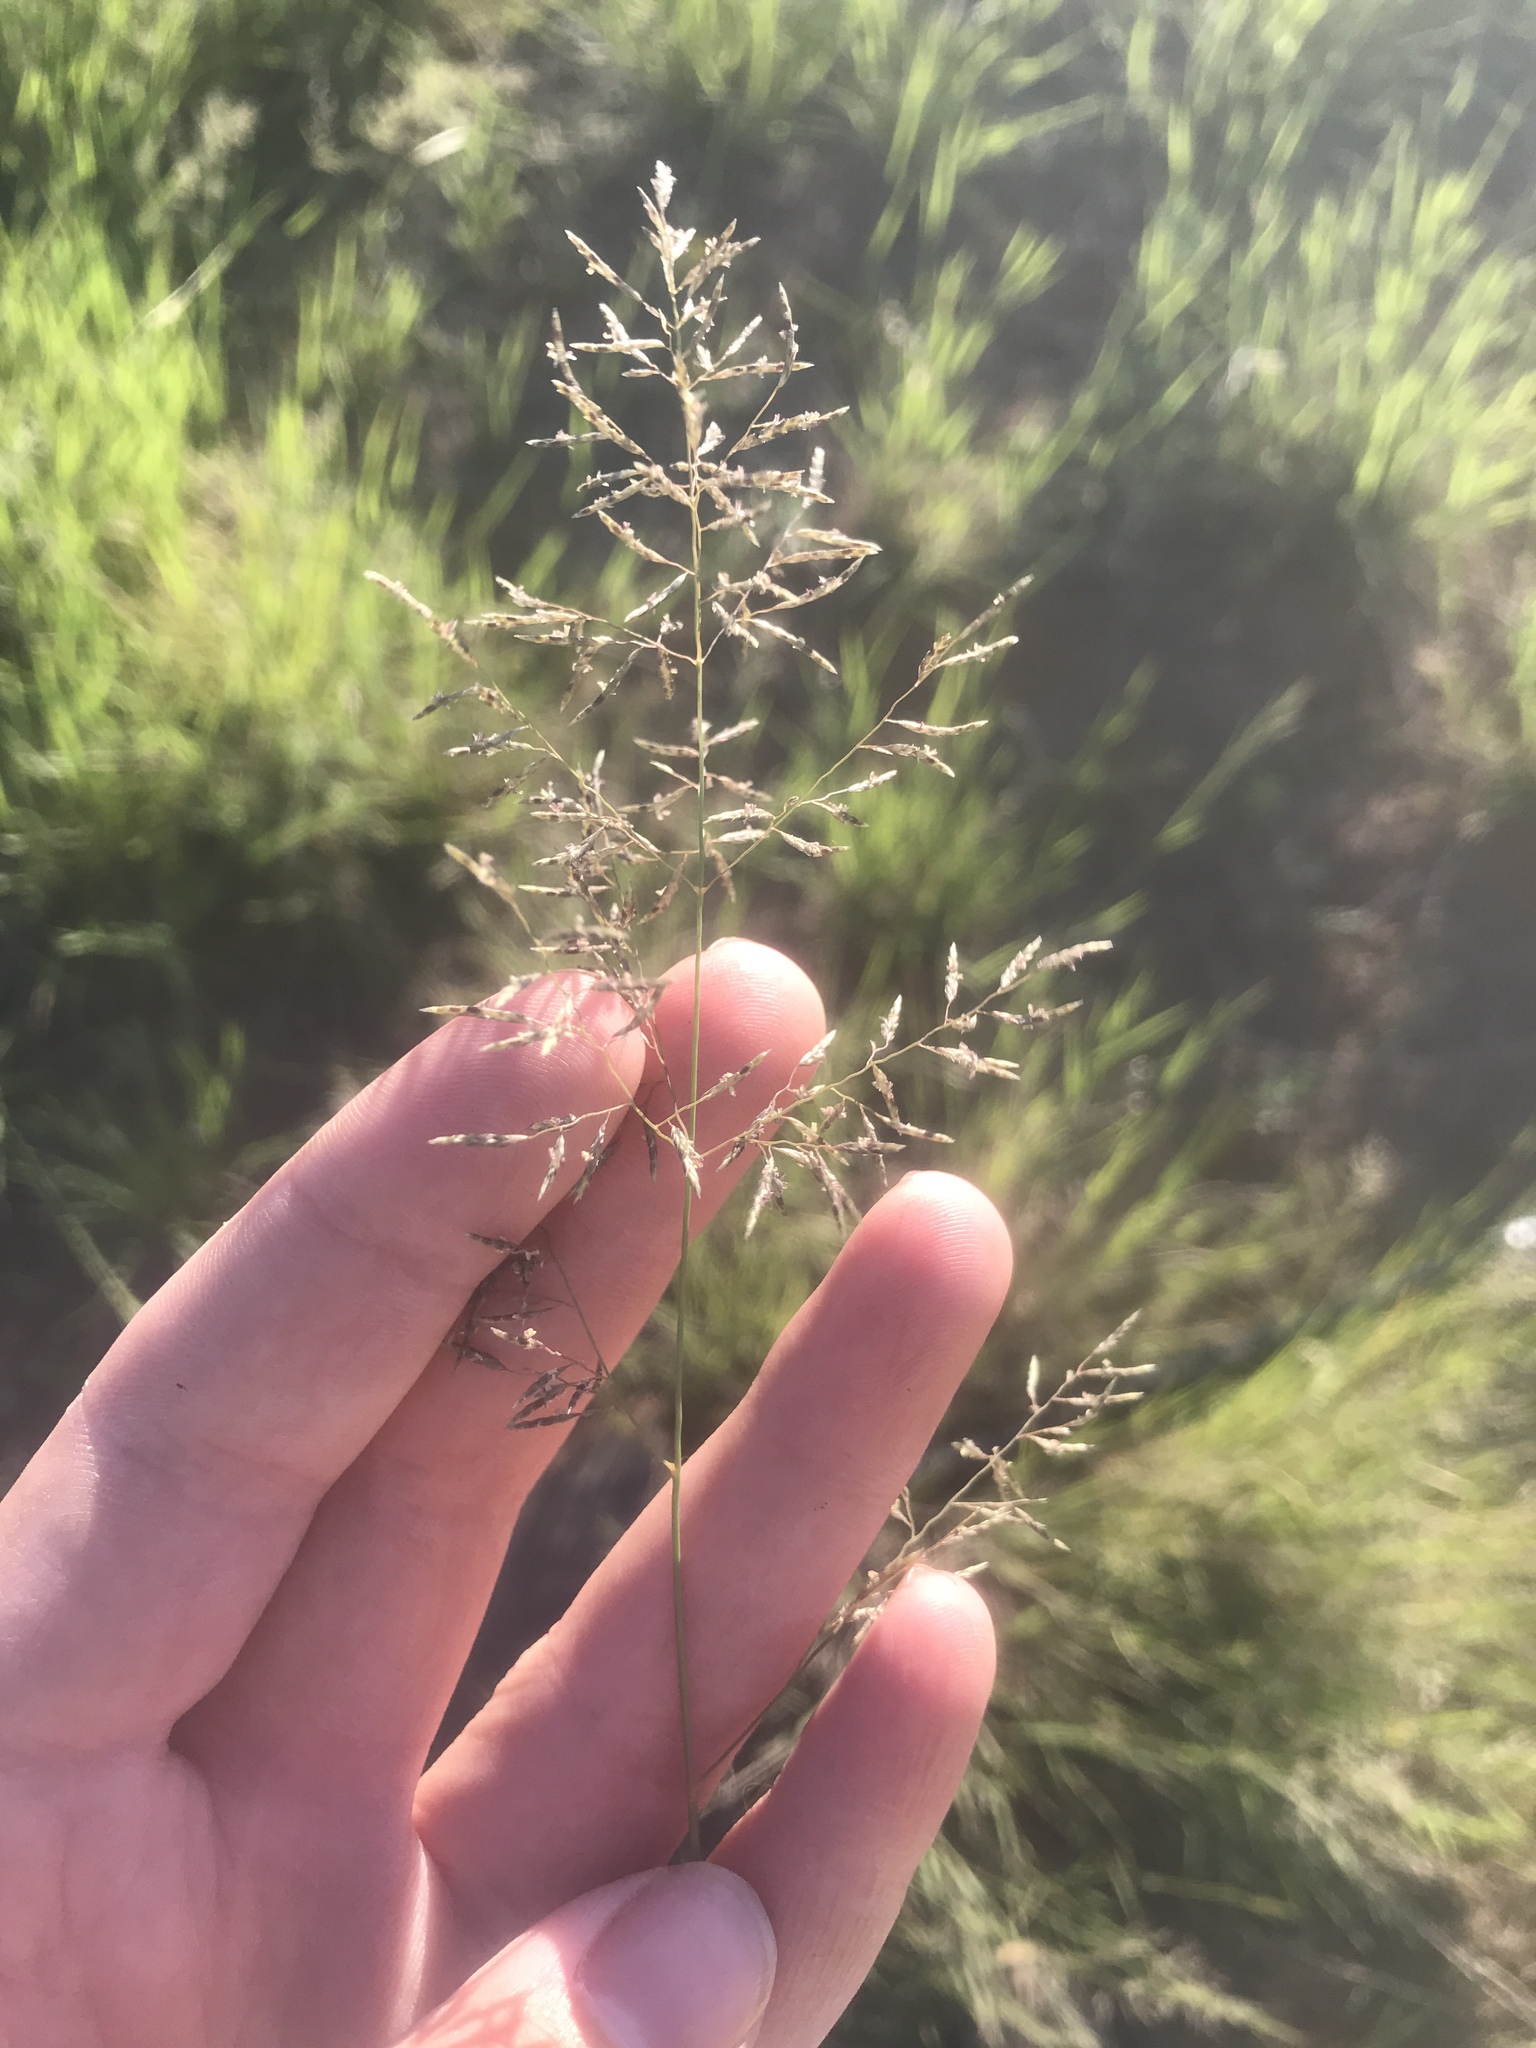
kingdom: Plantae
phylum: Tracheophyta
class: Liliopsida
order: Poales
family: Poaceae
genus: Eragrostis
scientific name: Eragrostis lehmanniana
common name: Lehmann lovegrass
